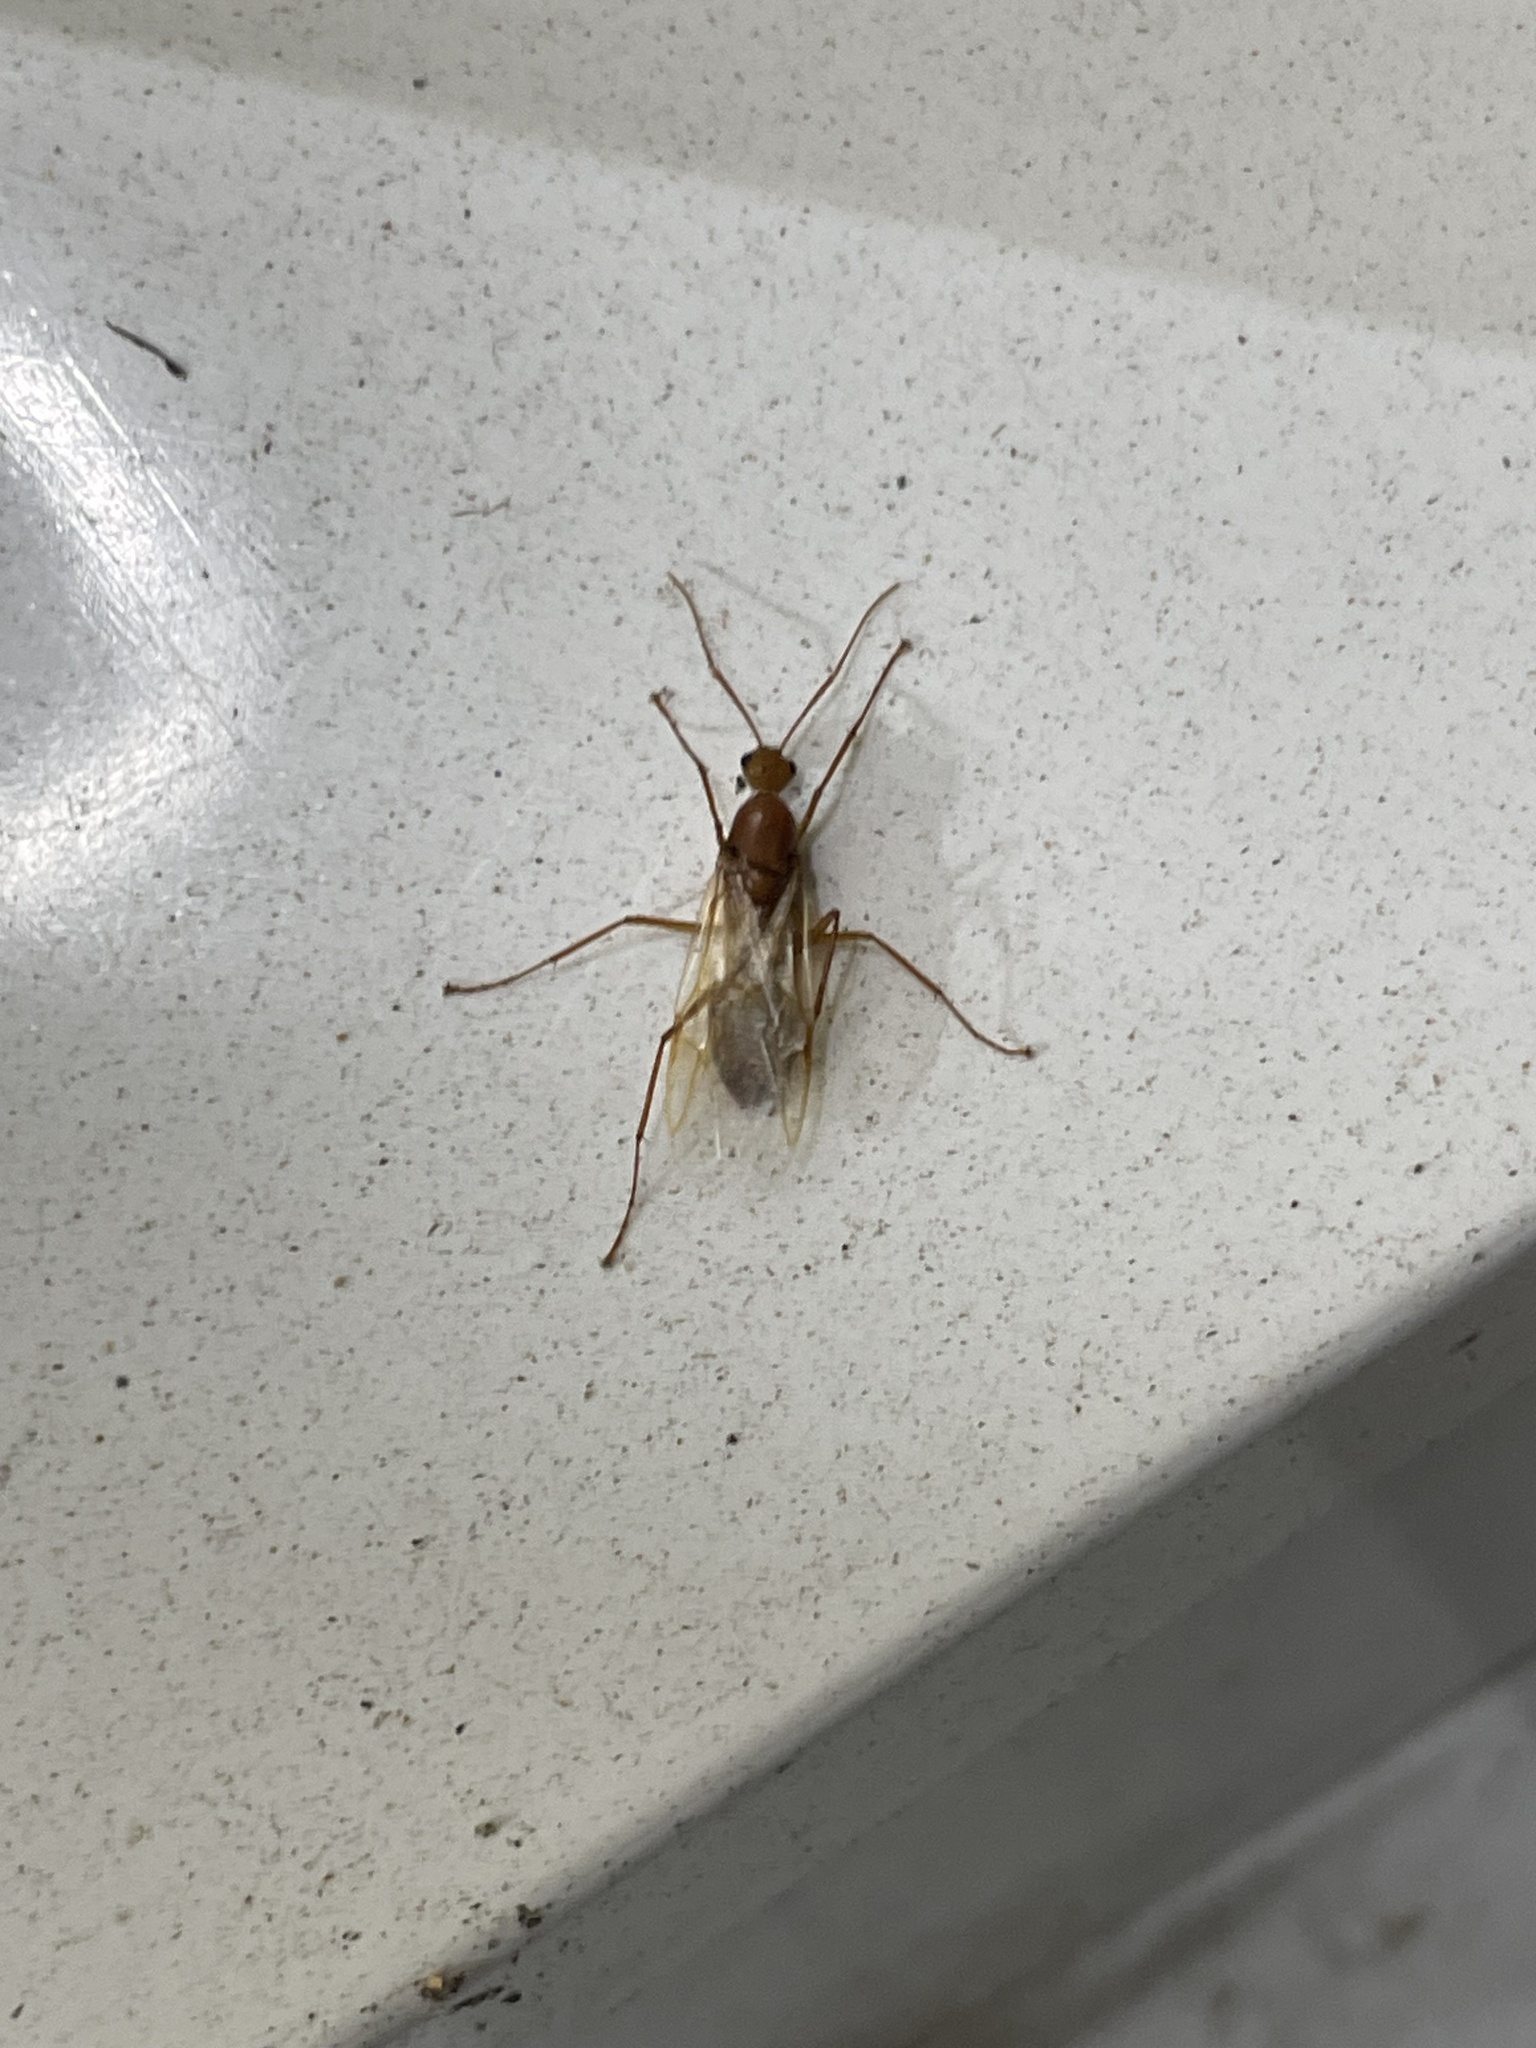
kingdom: Animalia
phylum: Arthropoda
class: Insecta
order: Hymenoptera
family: Formicidae
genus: Camponotus
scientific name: Camponotus castaneus
